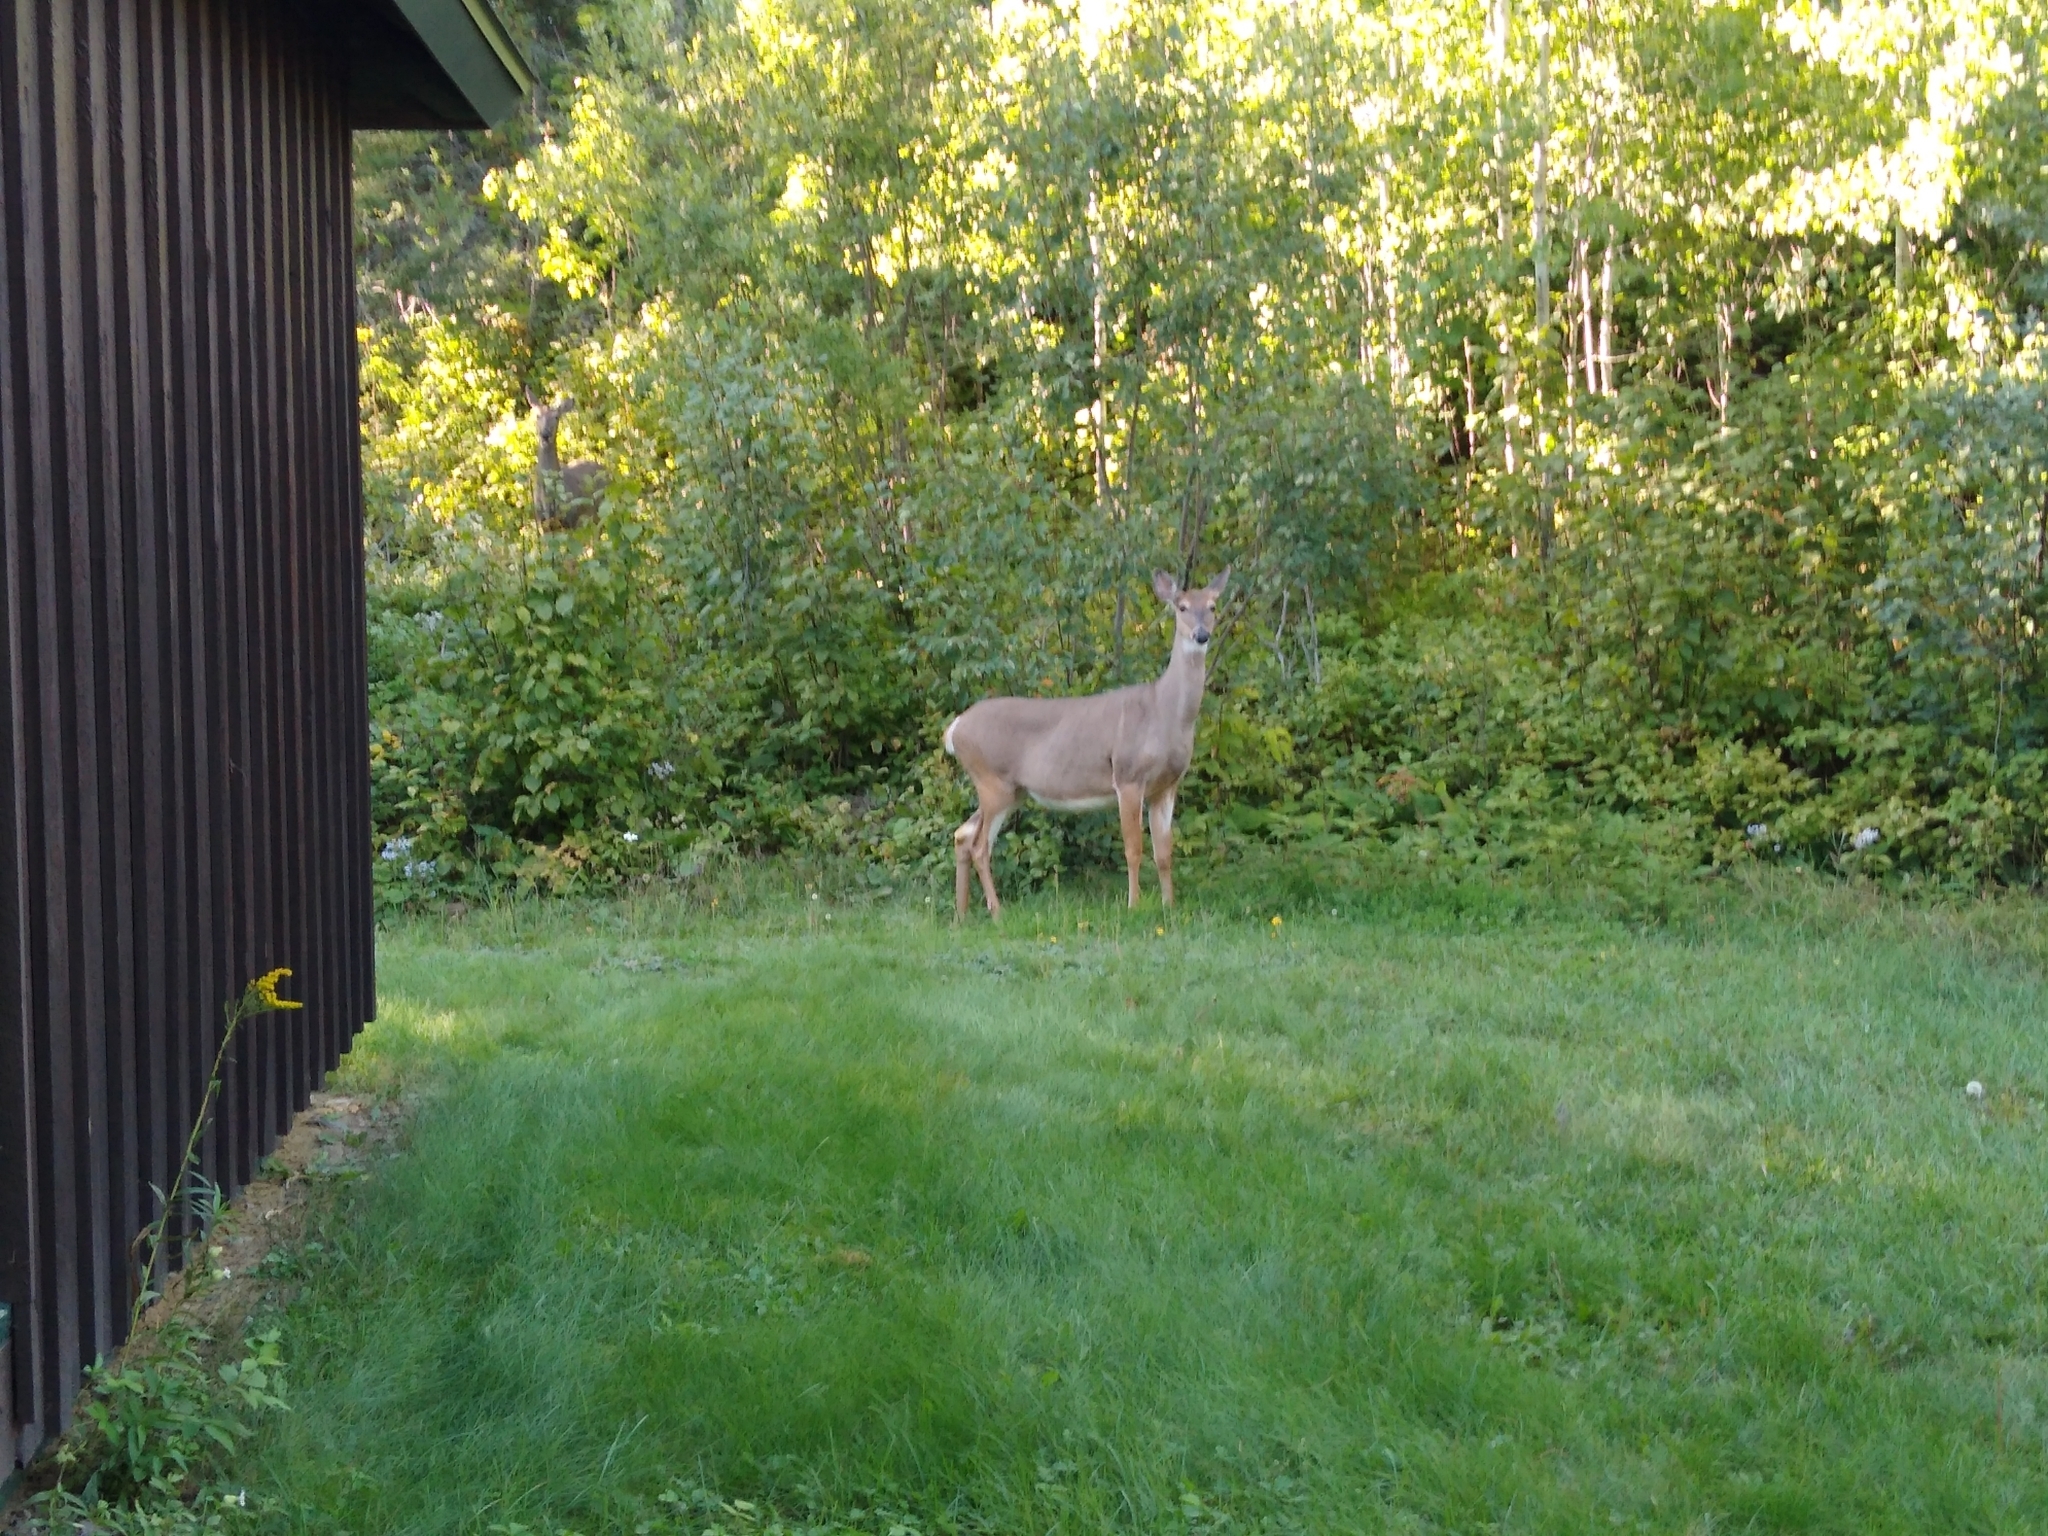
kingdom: Animalia
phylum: Chordata
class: Mammalia
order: Artiodactyla
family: Cervidae
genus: Odocoileus
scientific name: Odocoileus virginianus
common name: White-tailed deer
